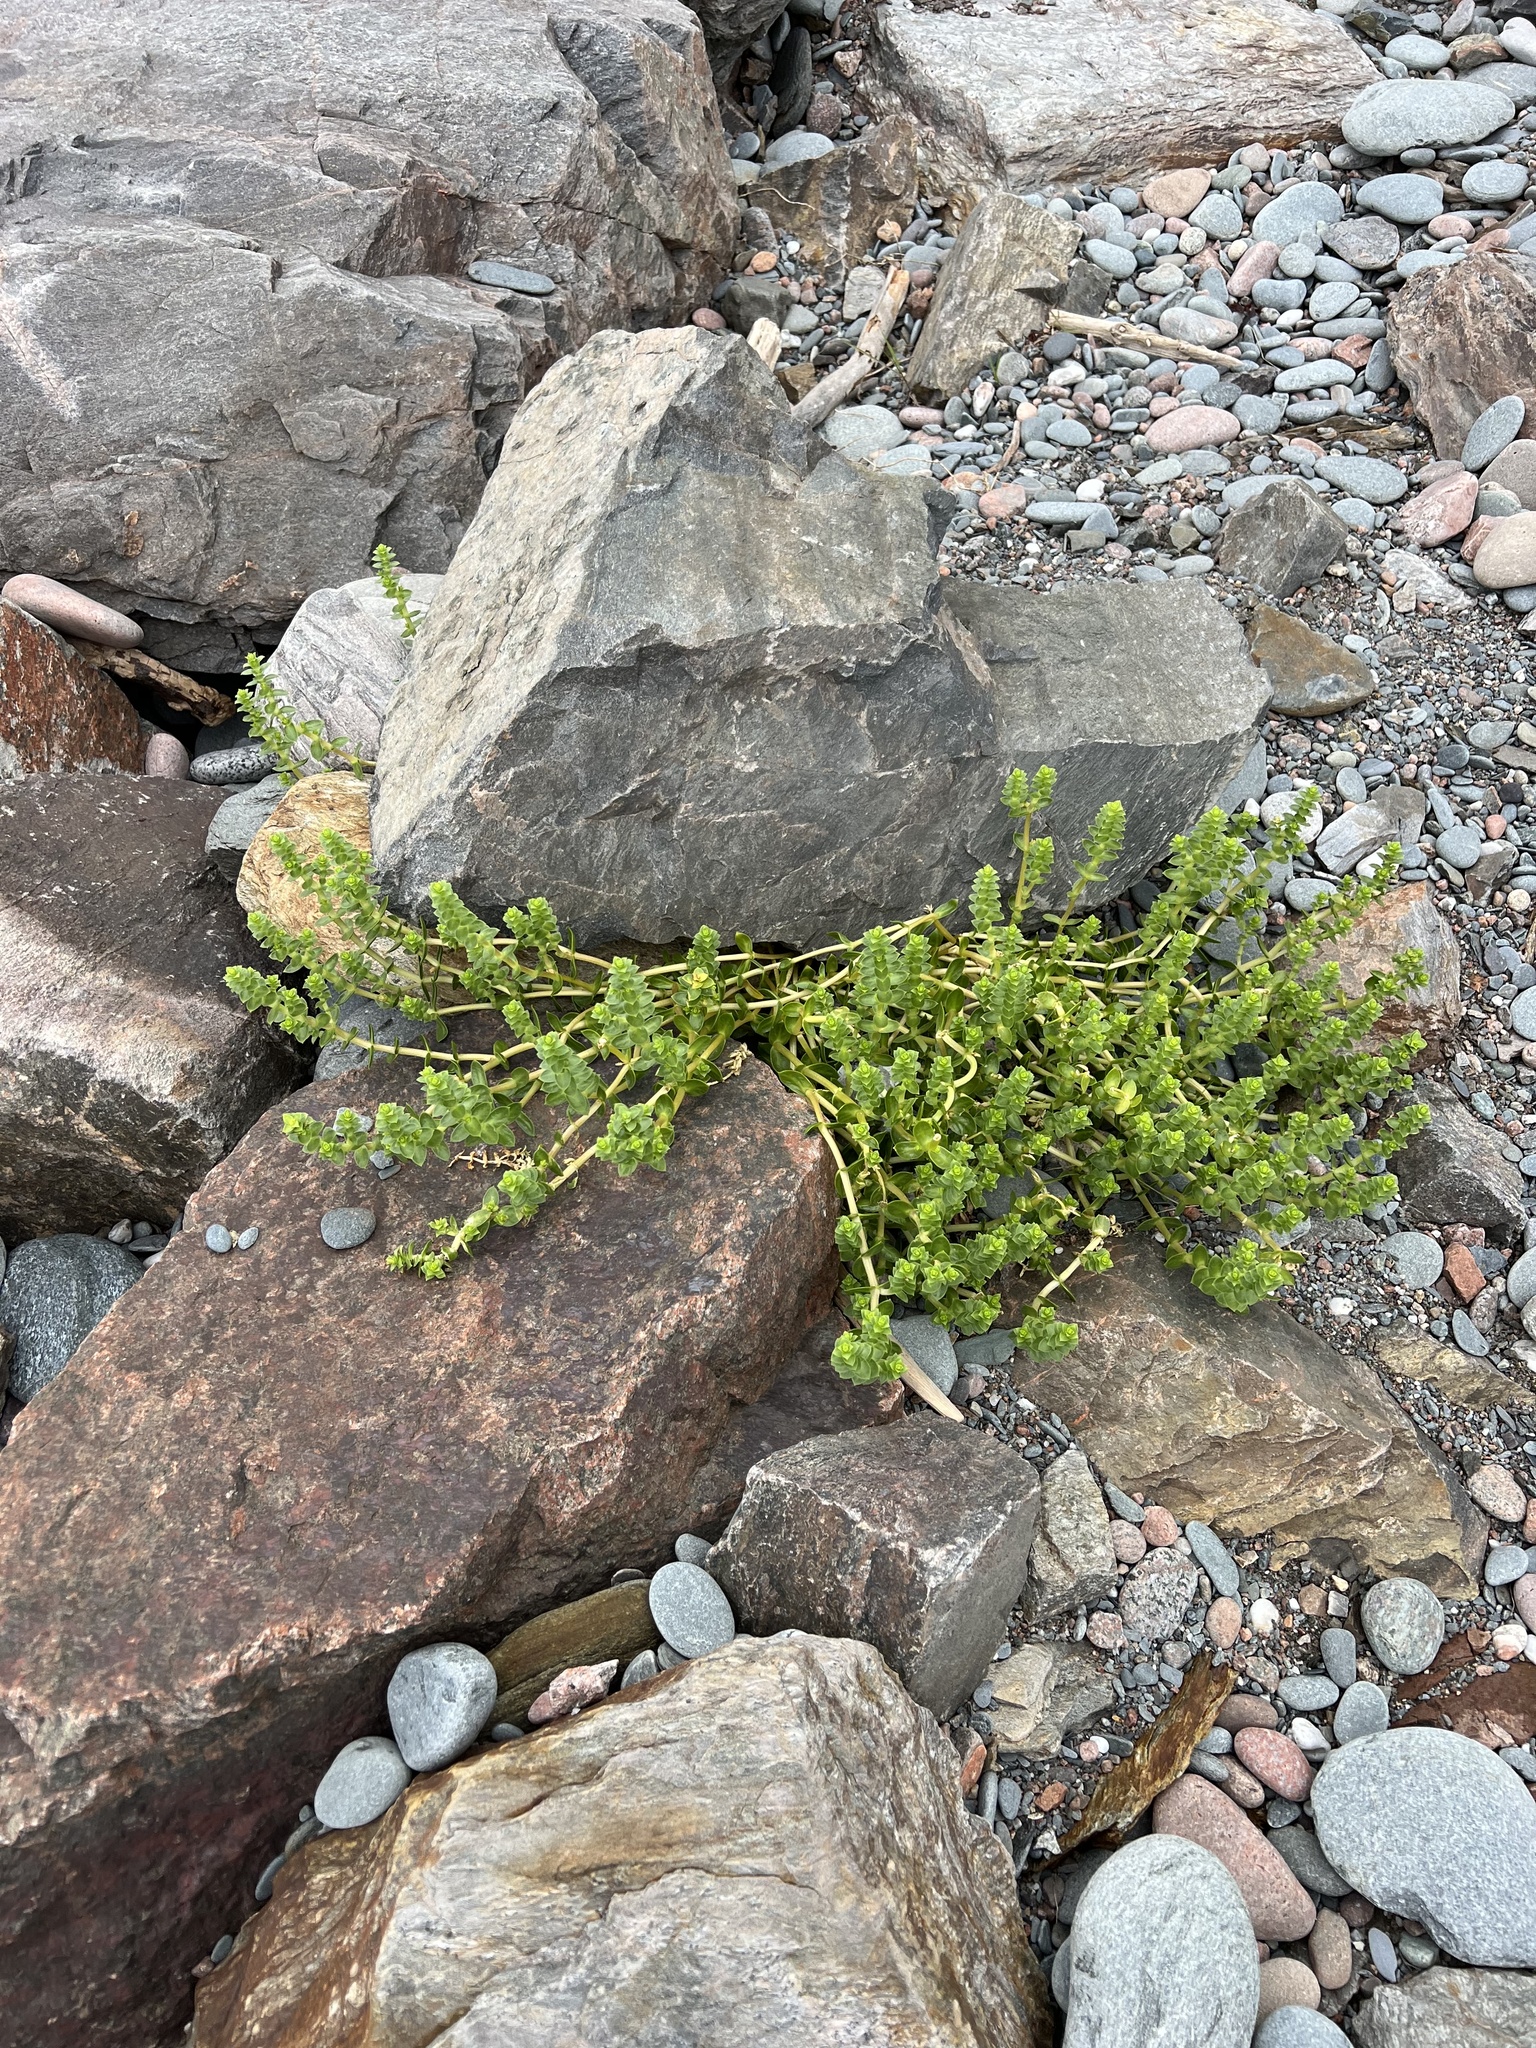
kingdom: Plantae
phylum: Tracheophyta
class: Magnoliopsida
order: Caryophyllales
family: Caryophyllaceae
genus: Honckenya
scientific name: Honckenya peploides
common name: Sea sandwort
